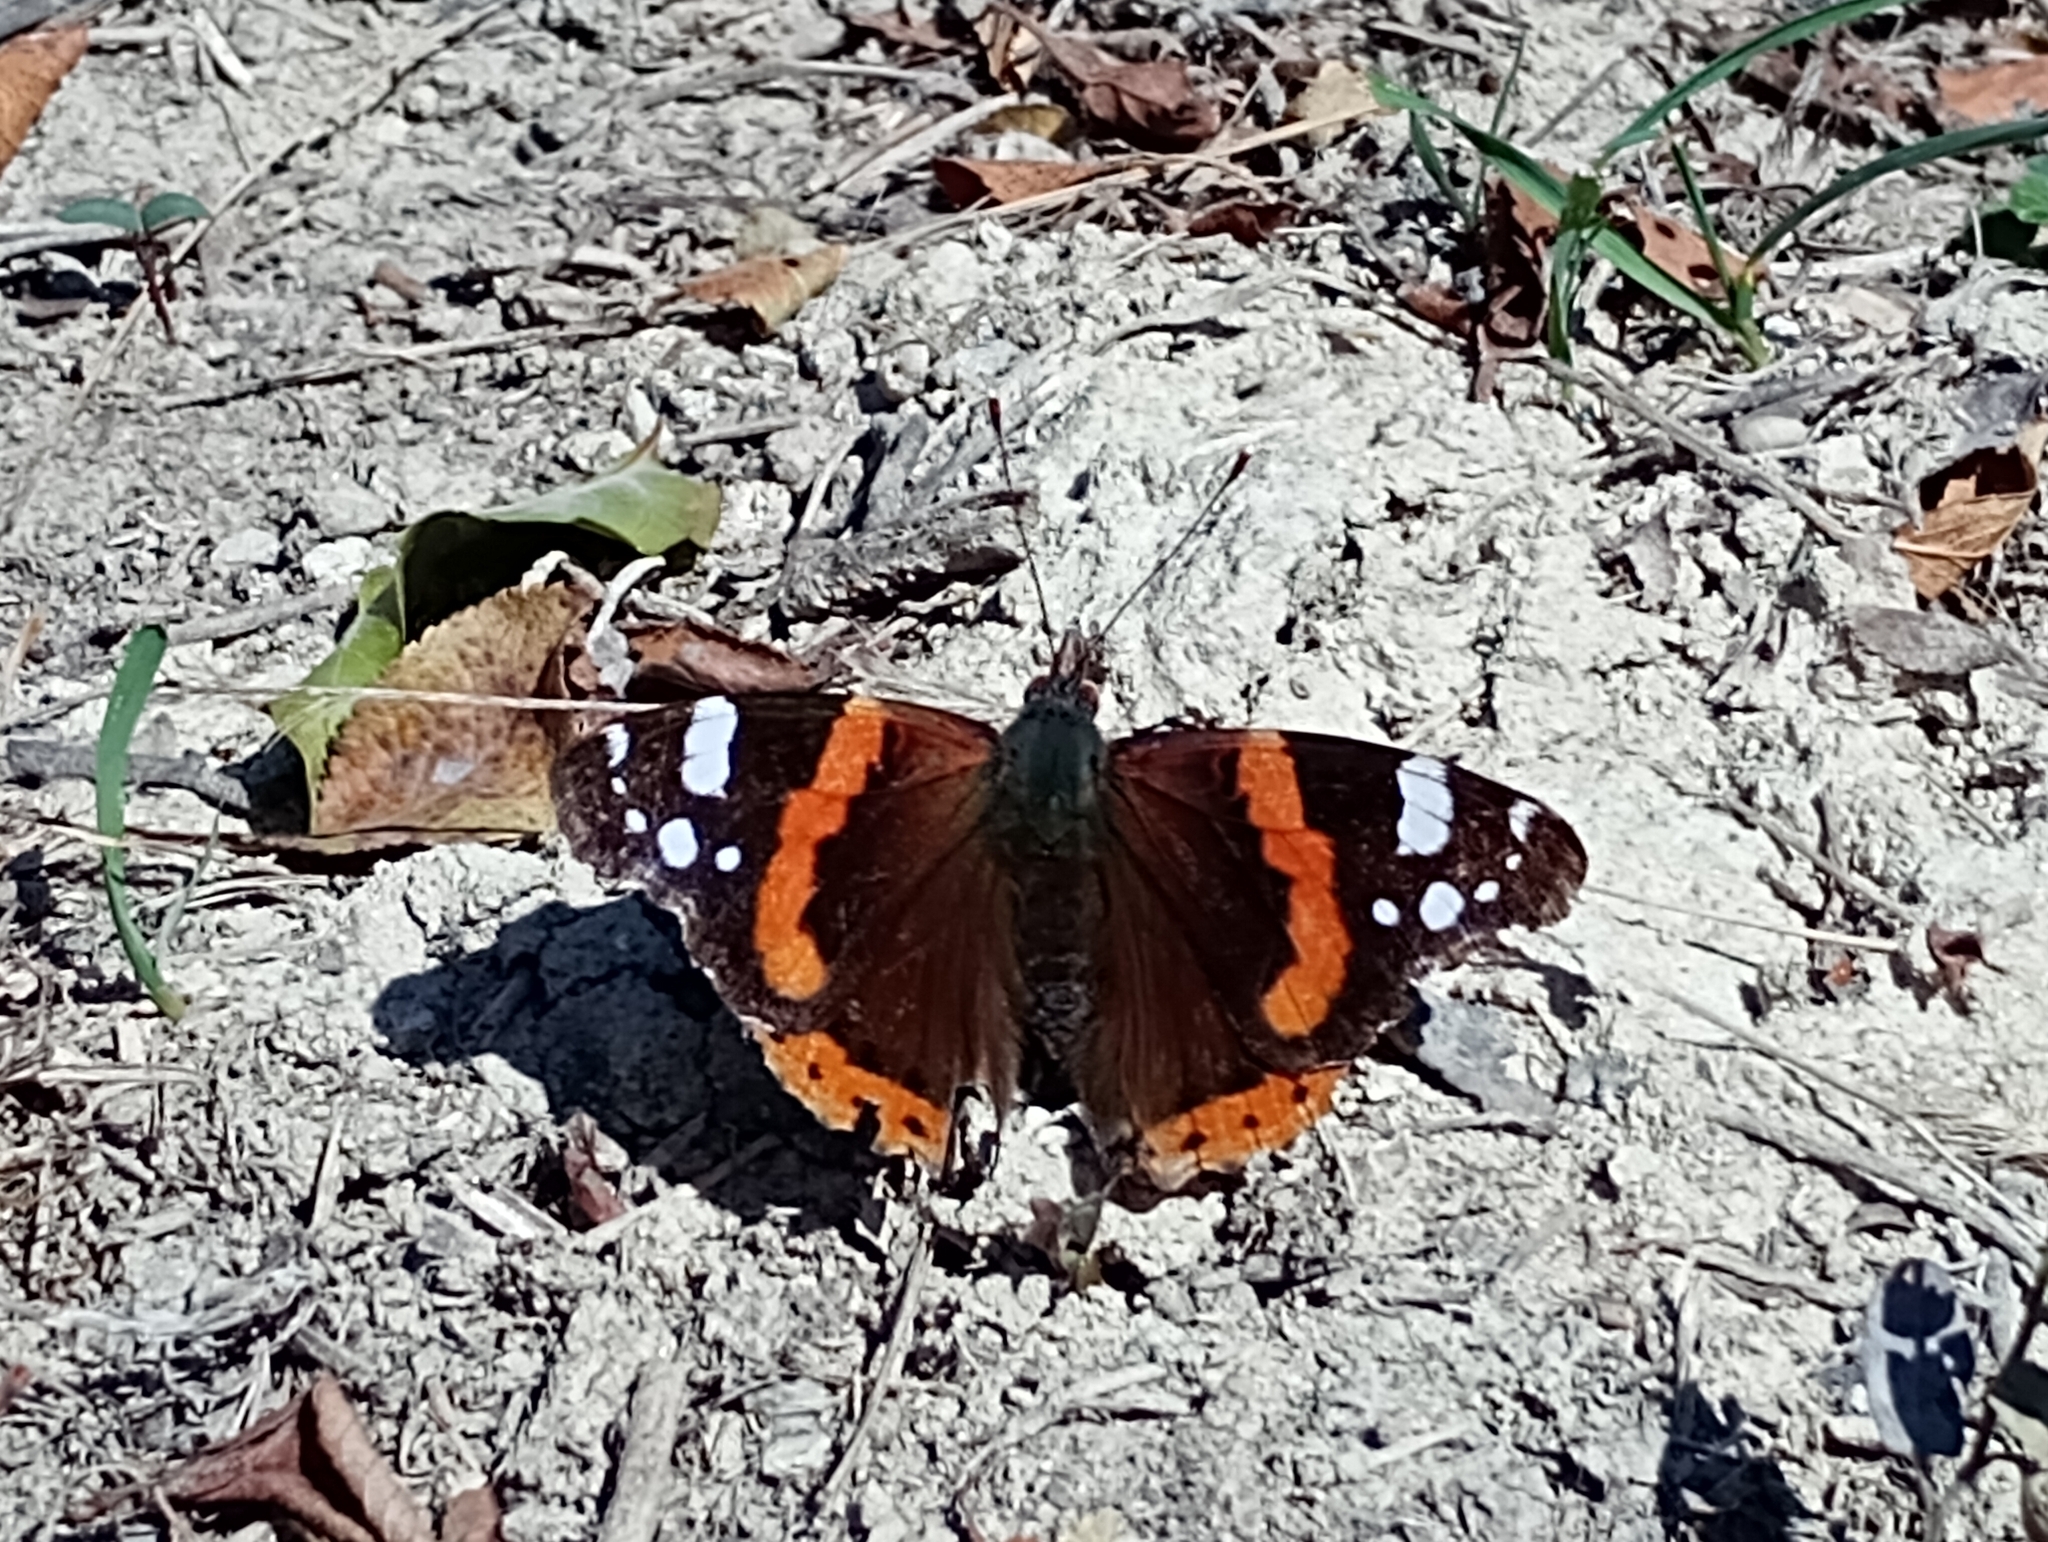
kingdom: Animalia
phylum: Arthropoda
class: Insecta
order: Lepidoptera
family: Nymphalidae
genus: Vanessa
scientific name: Vanessa atalanta
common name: Red admiral
